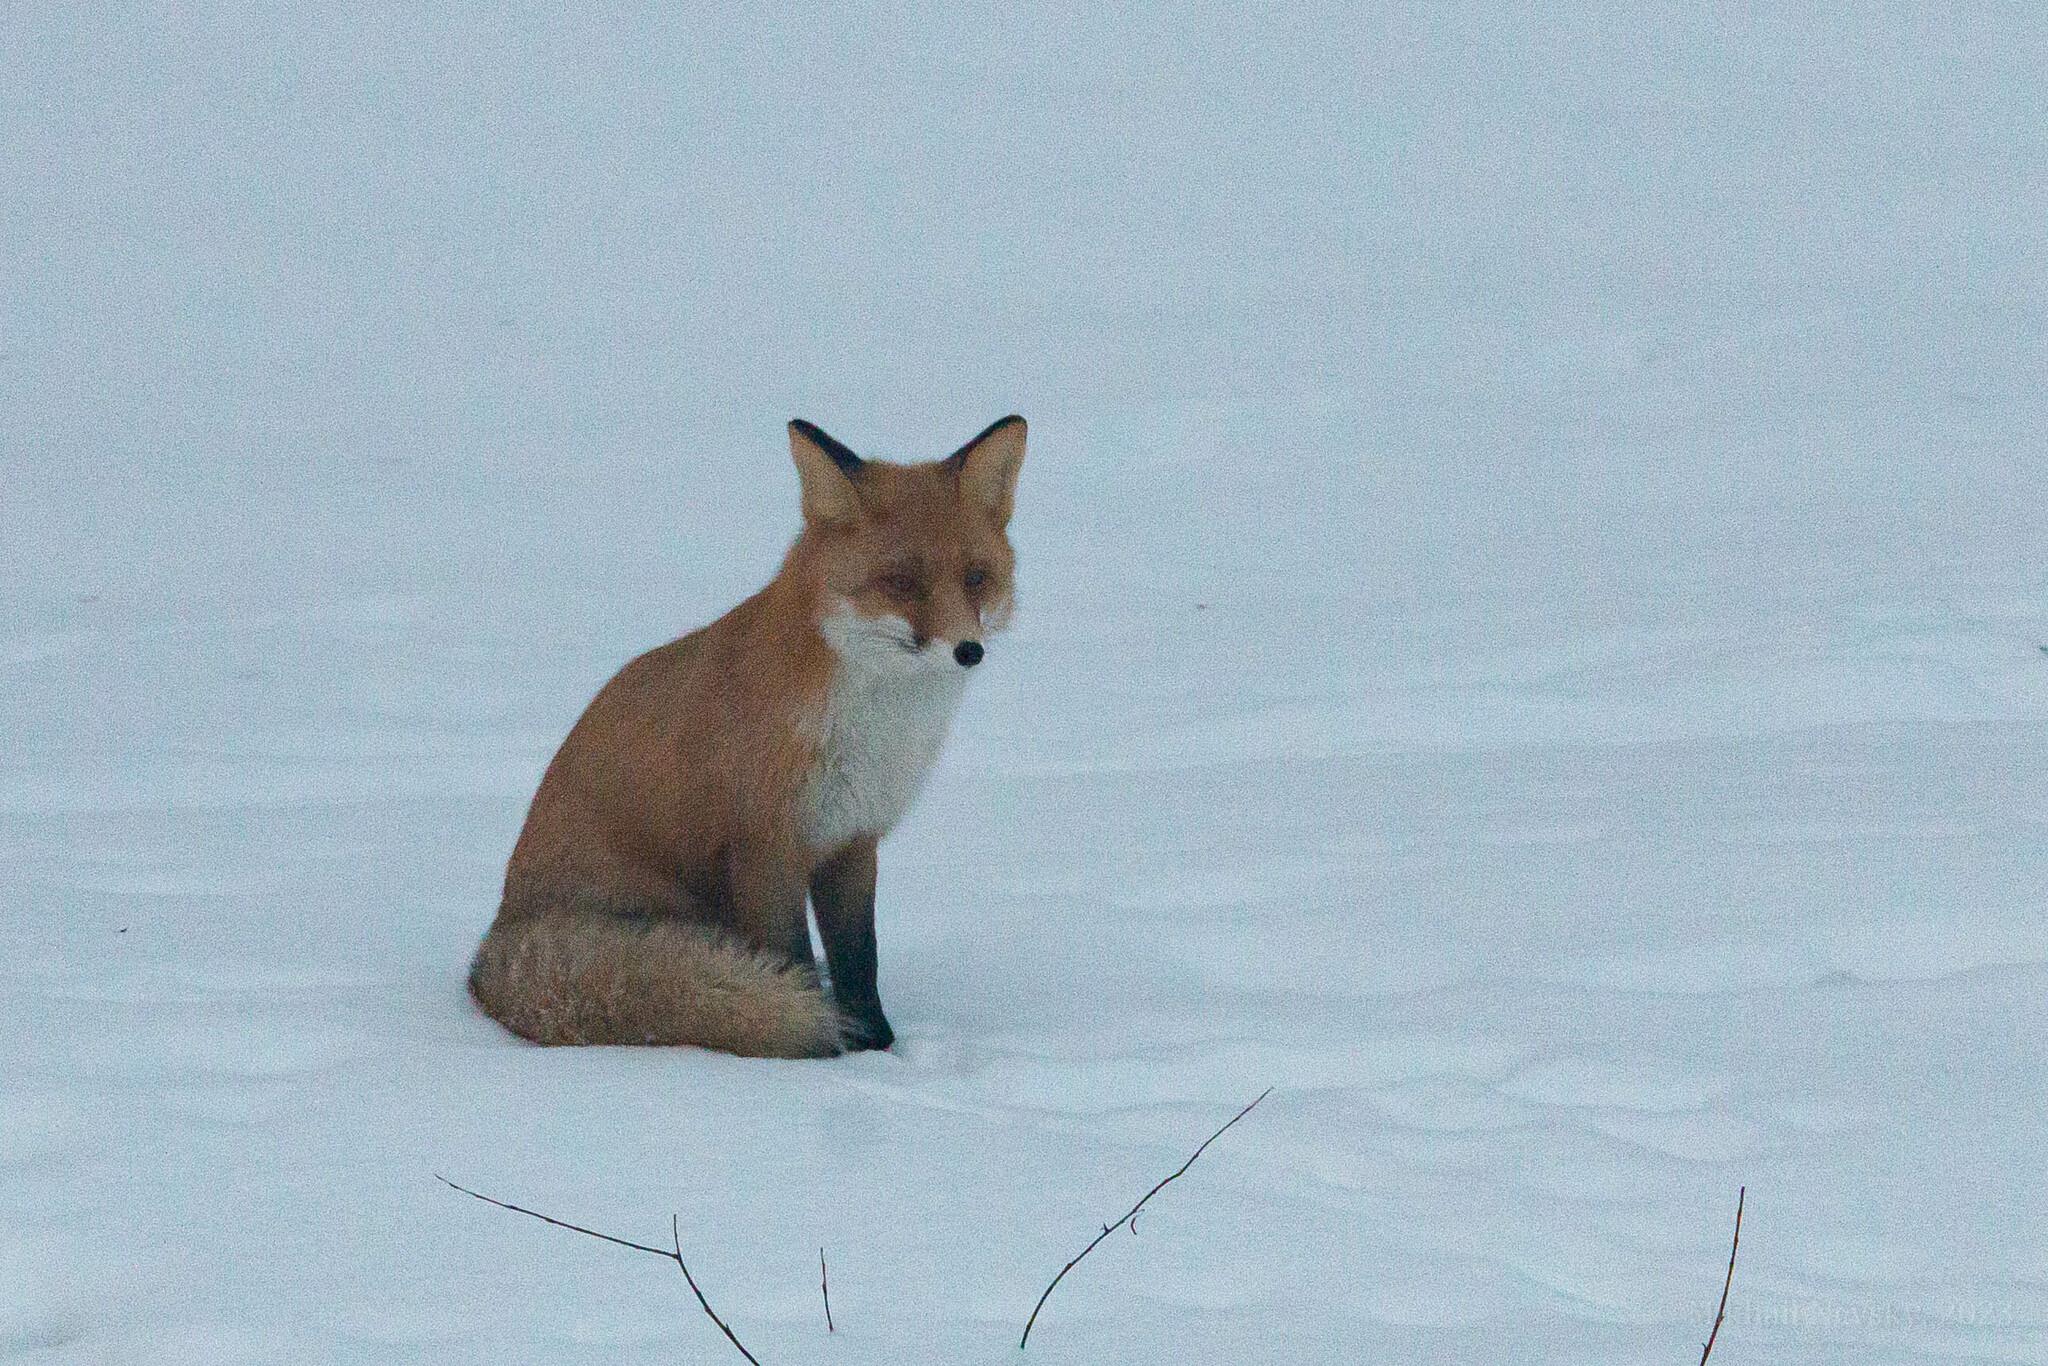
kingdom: Animalia
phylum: Chordata
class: Mammalia
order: Carnivora
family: Canidae
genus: Vulpes
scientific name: Vulpes vulpes
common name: Red fox
